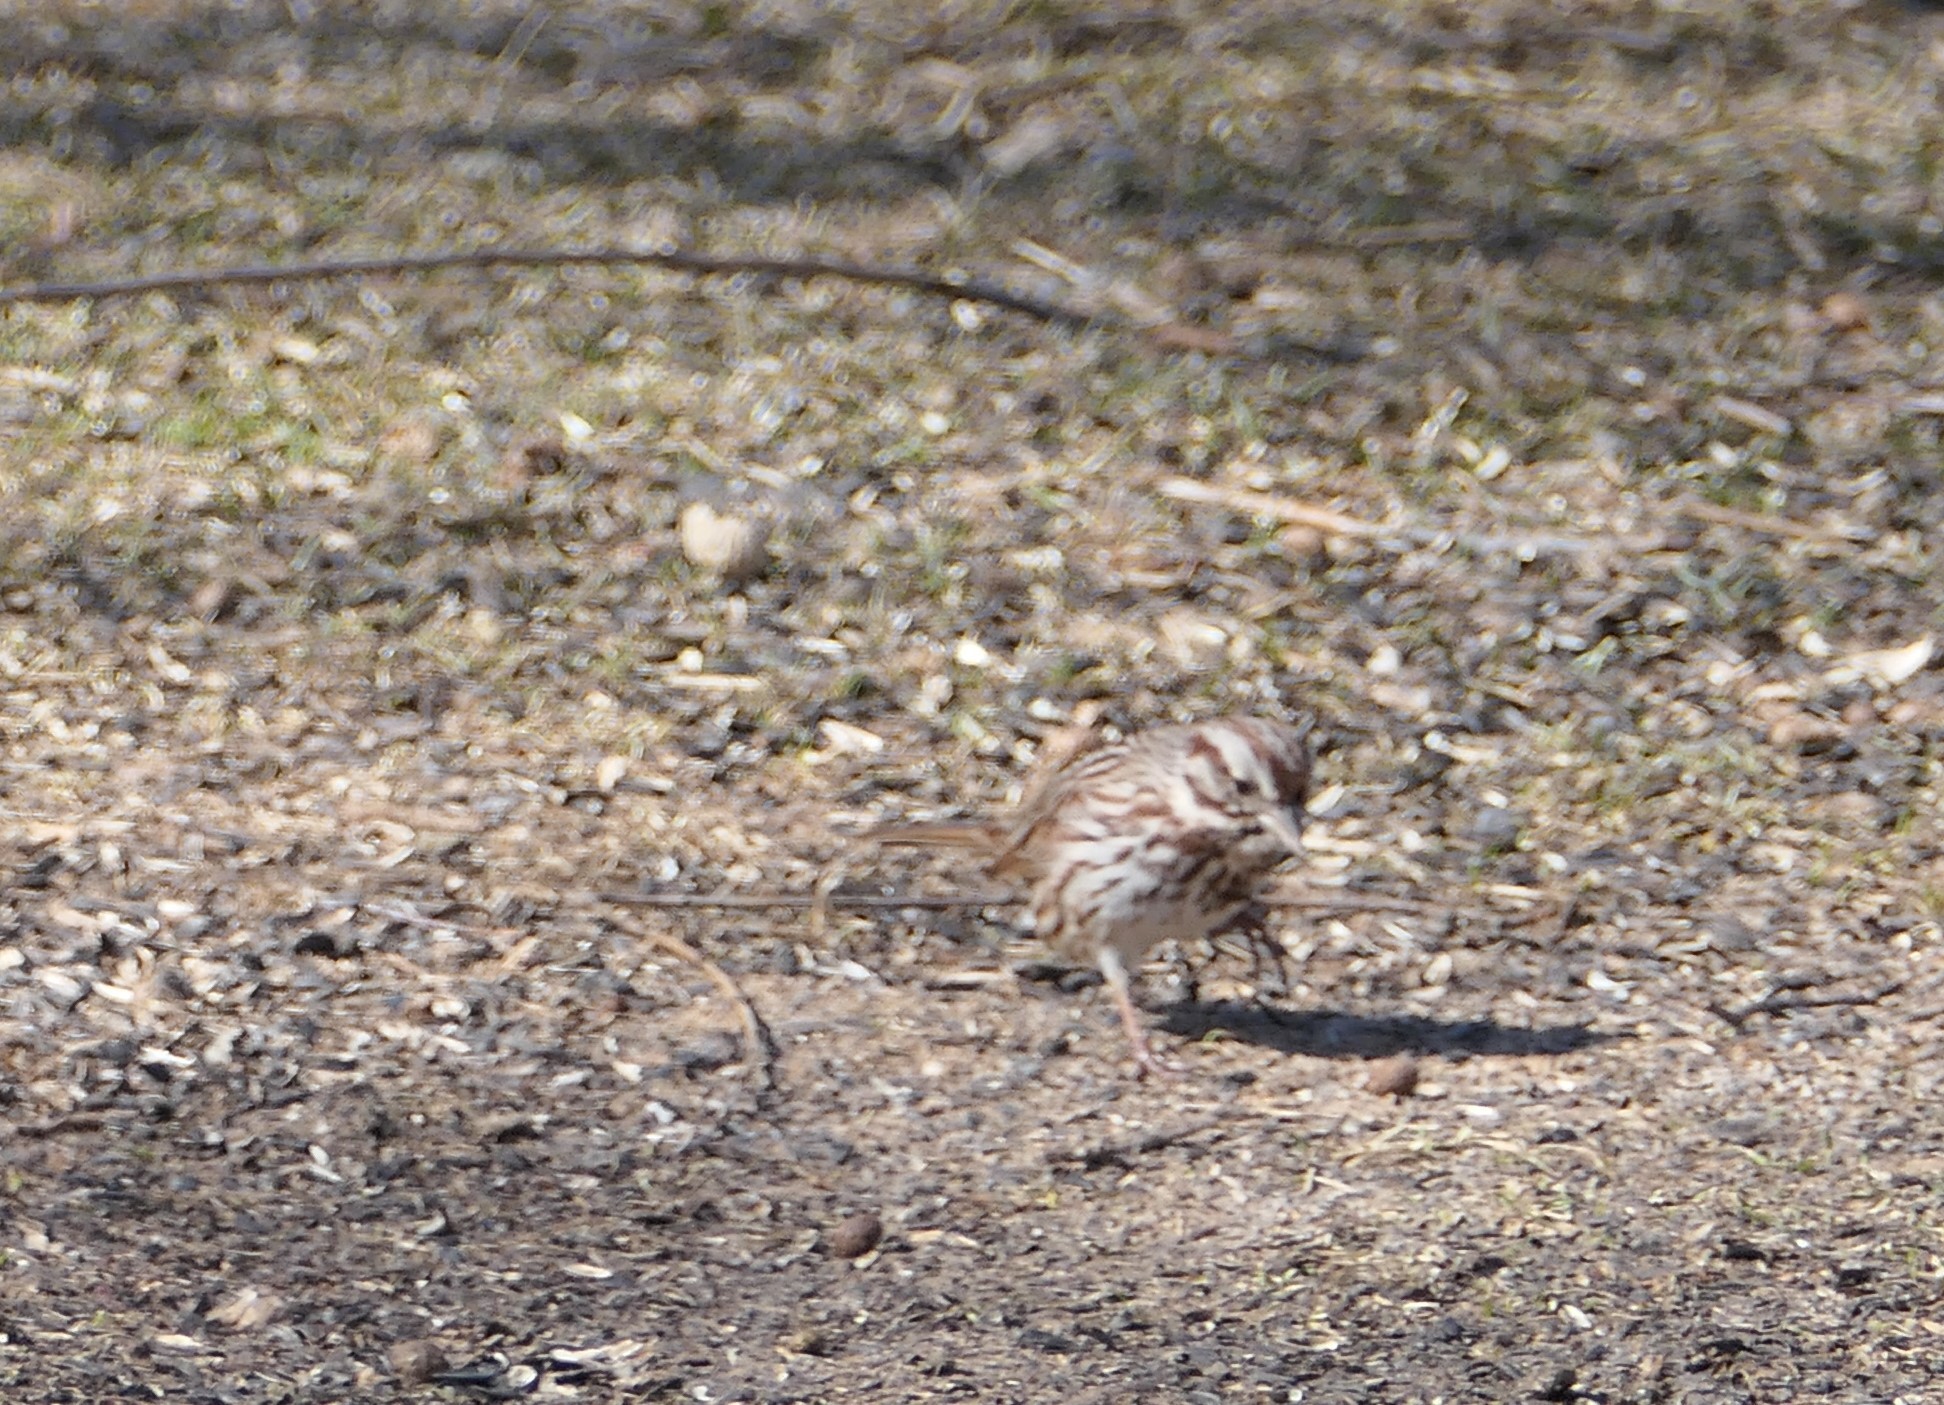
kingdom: Animalia
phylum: Chordata
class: Aves
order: Passeriformes
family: Passerellidae
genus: Melospiza
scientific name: Melospiza melodia
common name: Song sparrow
